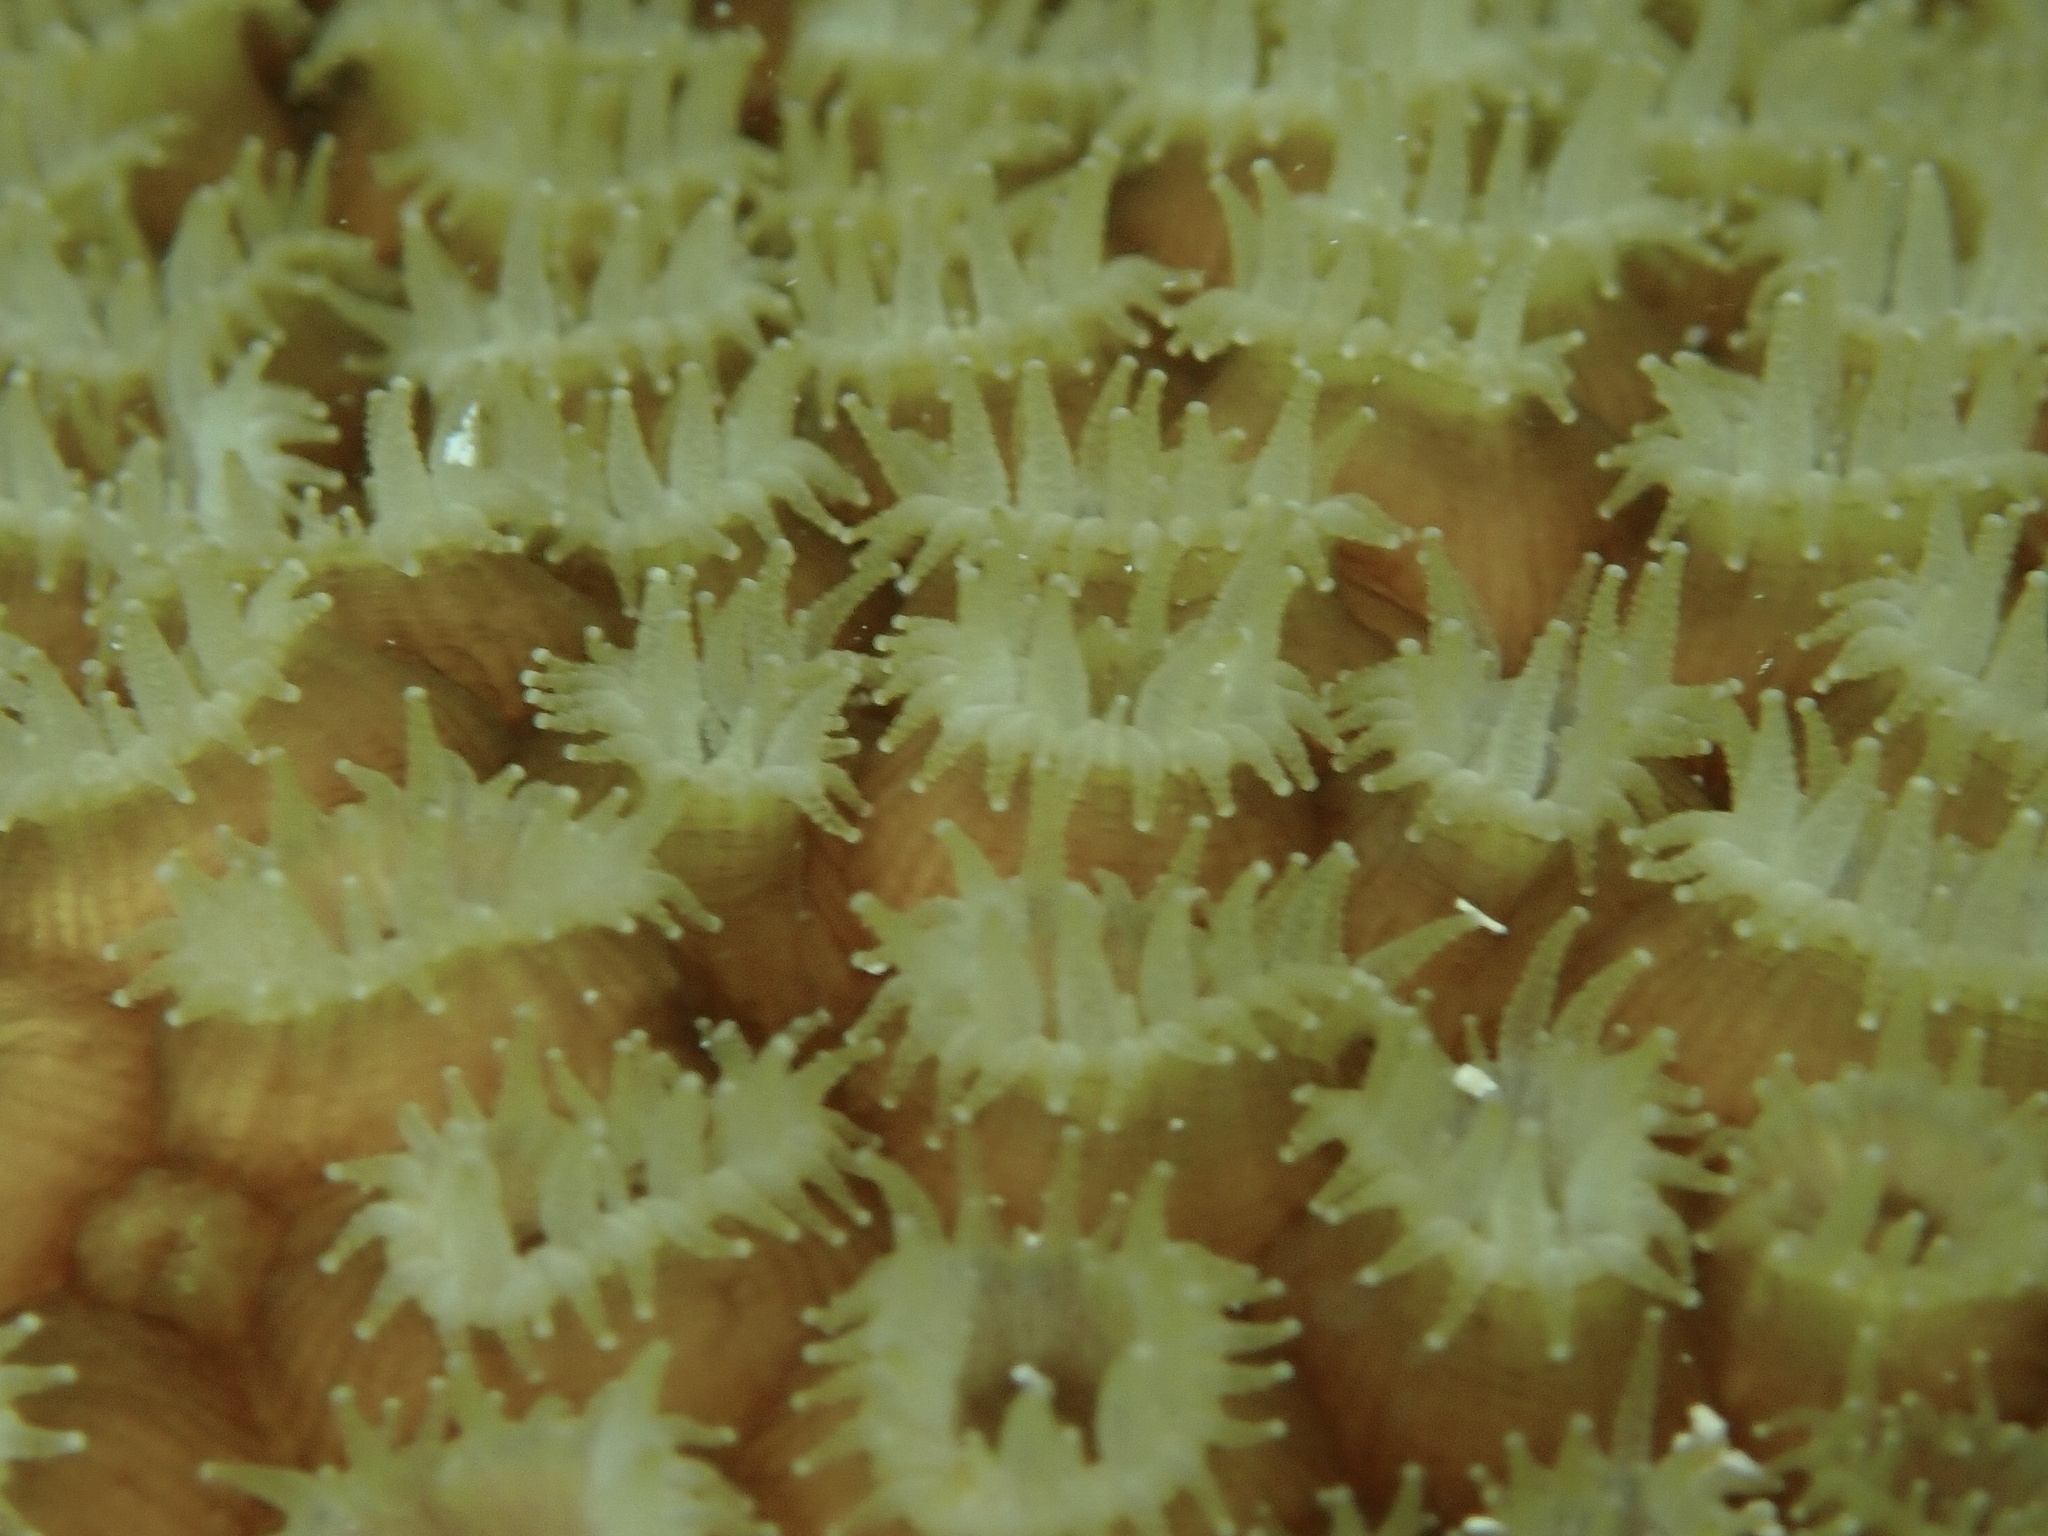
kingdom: Animalia
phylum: Cnidaria
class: Anthozoa
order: Scleractinia
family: Montastraeidae
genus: Montastraea
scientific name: Montastraea cavernosa
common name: Great star coral
